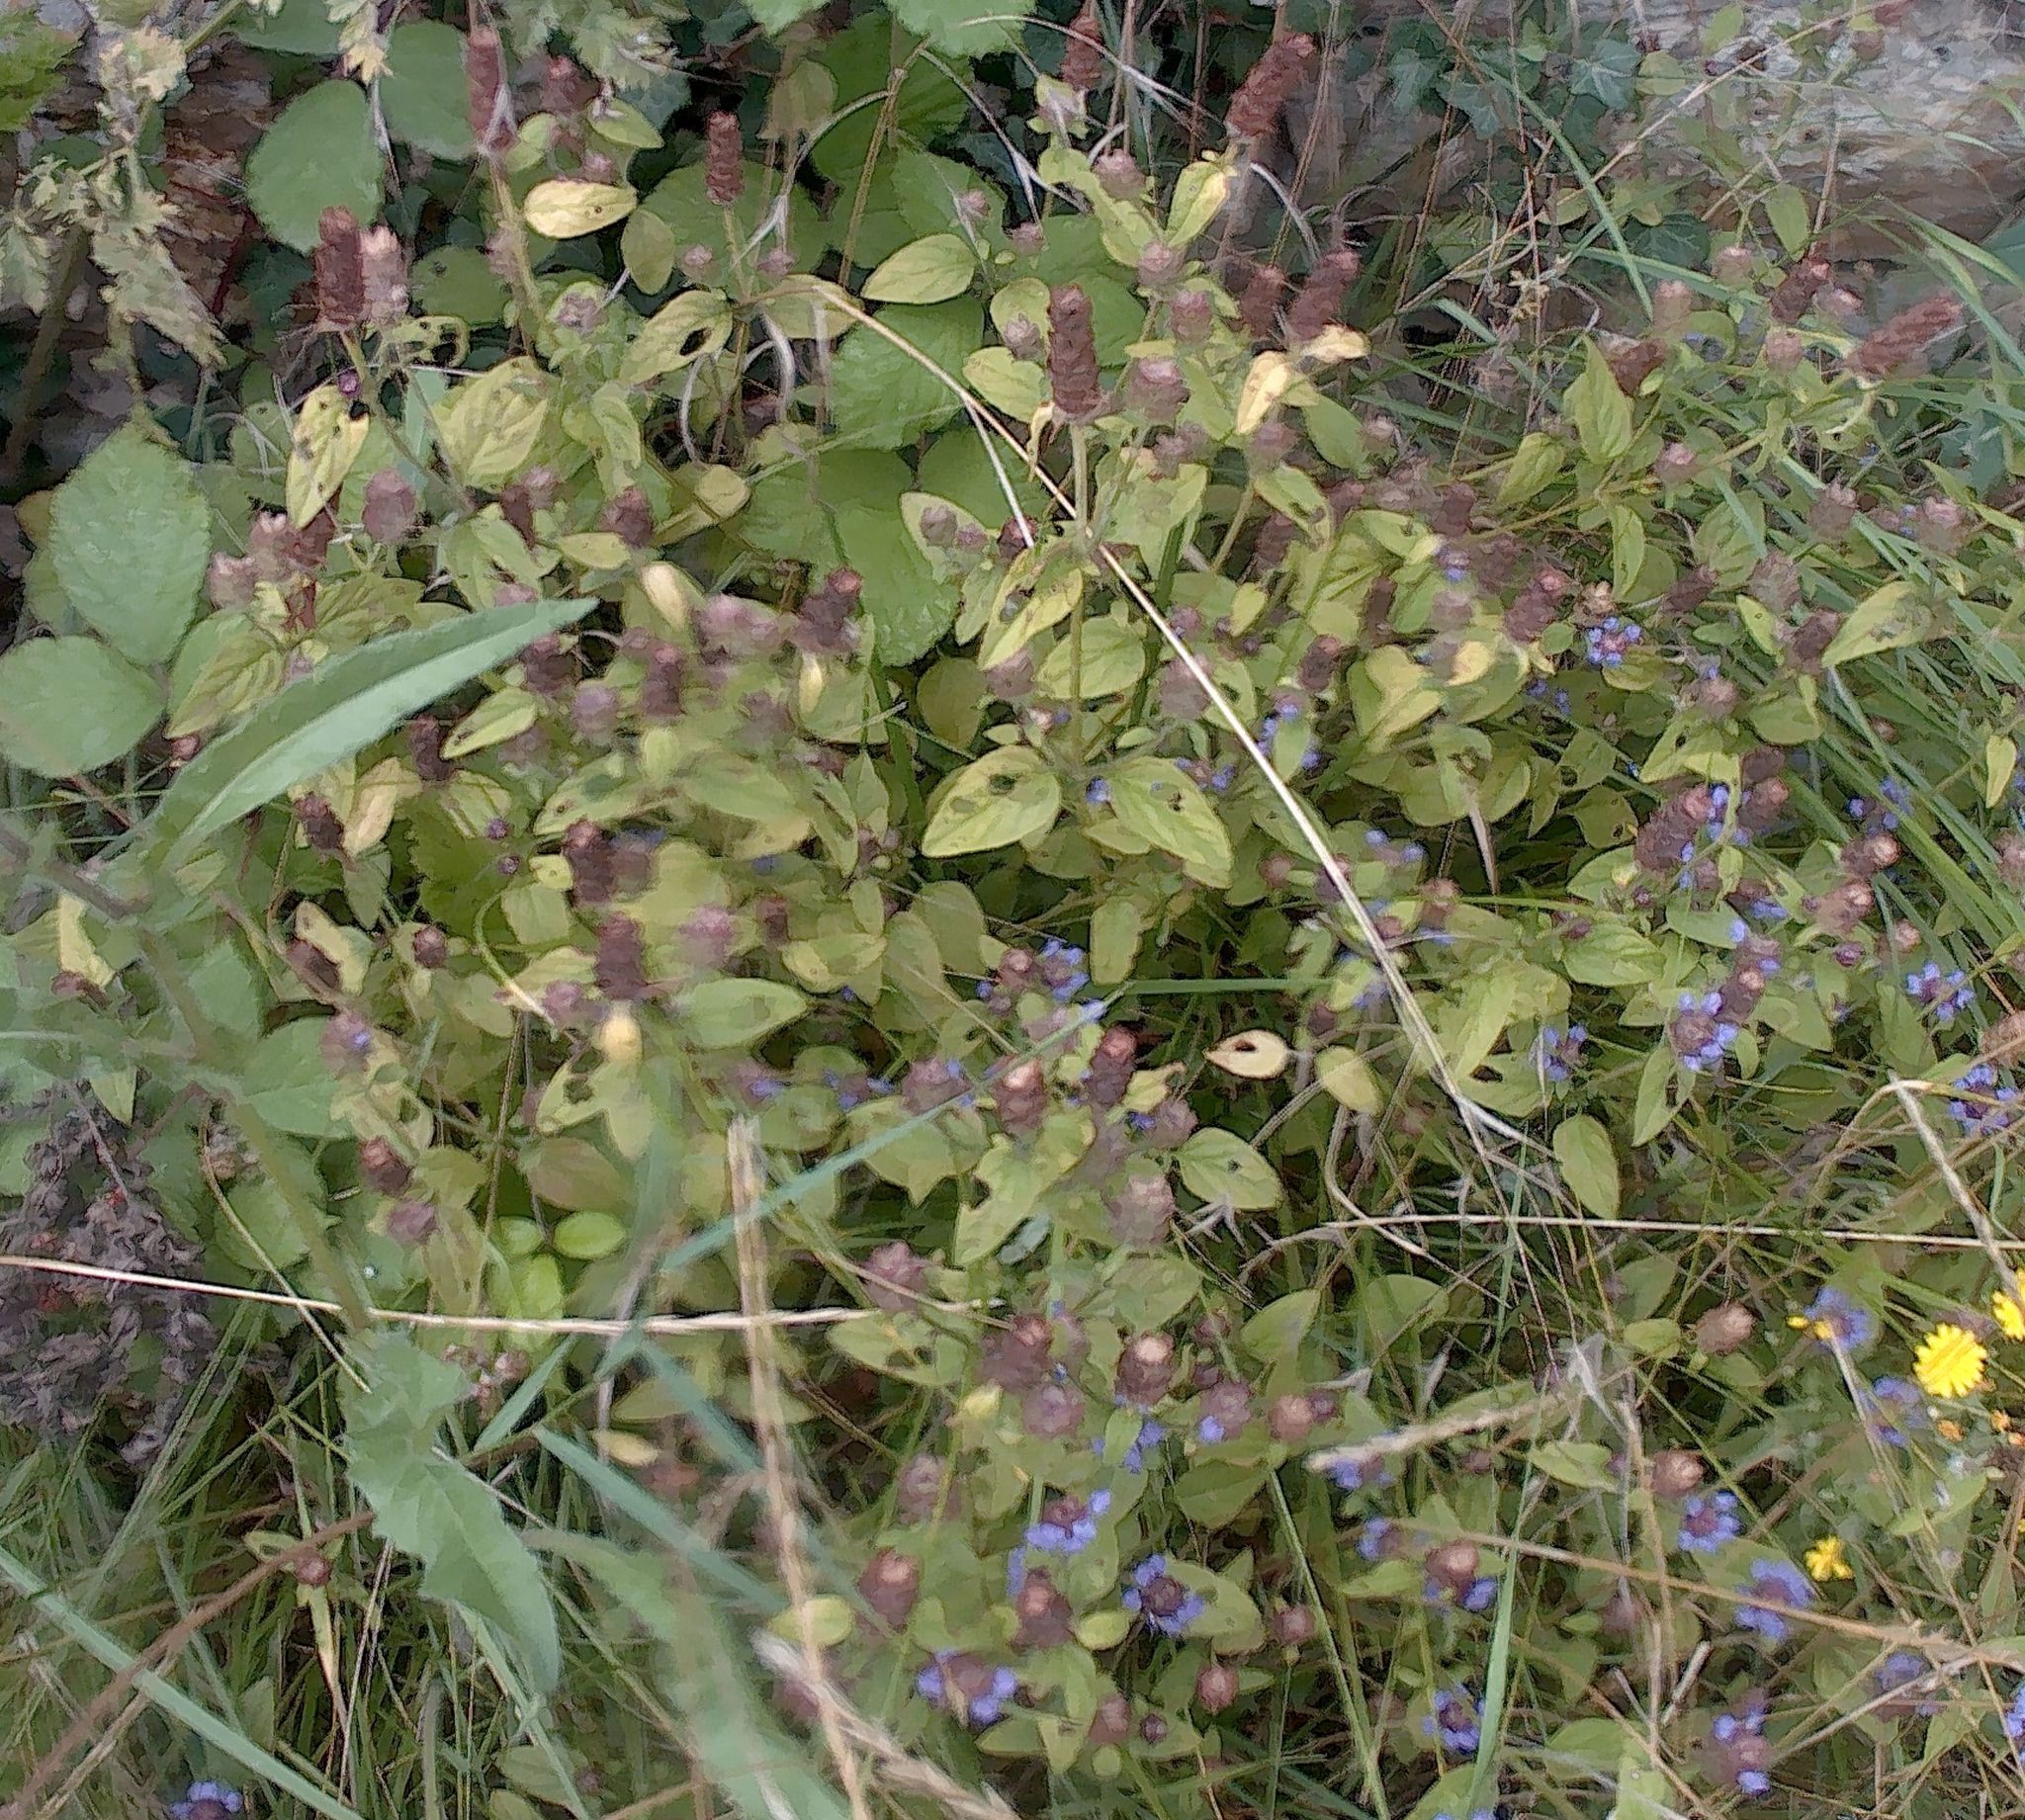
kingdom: Plantae
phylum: Tracheophyta
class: Magnoliopsida
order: Lamiales
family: Lamiaceae
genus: Prunella
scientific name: Prunella vulgaris
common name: Heal-all
